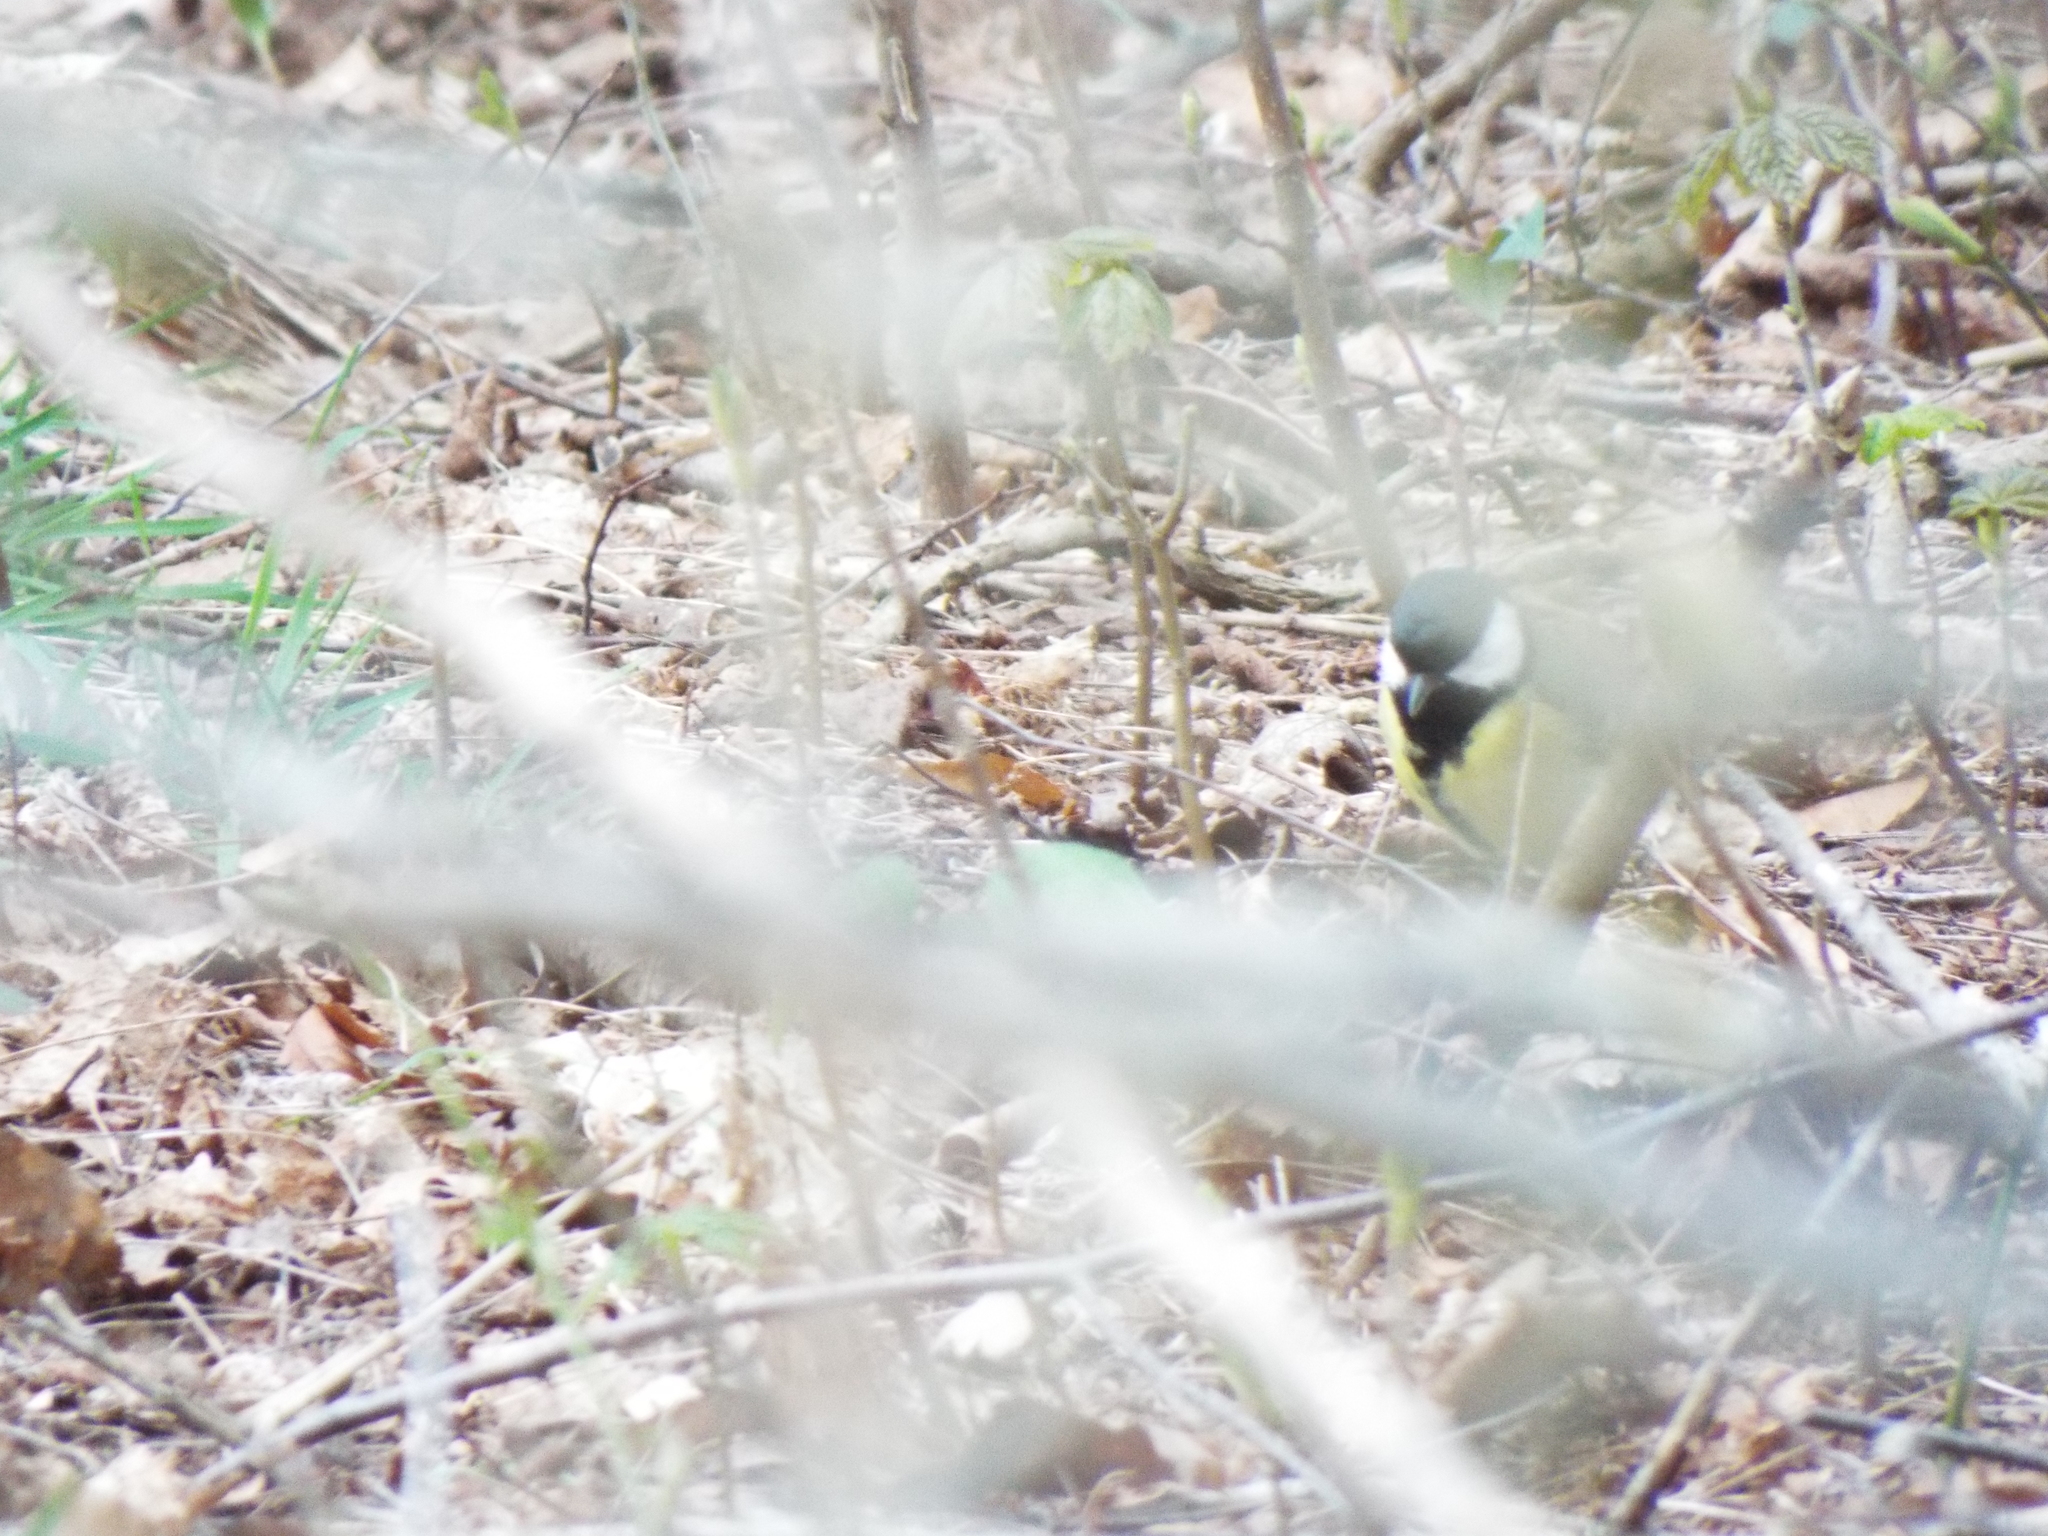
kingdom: Animalia
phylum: Chordata
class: Aves
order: Passeriformes
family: Paridae
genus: Parus
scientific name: Parus major
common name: Great tit
